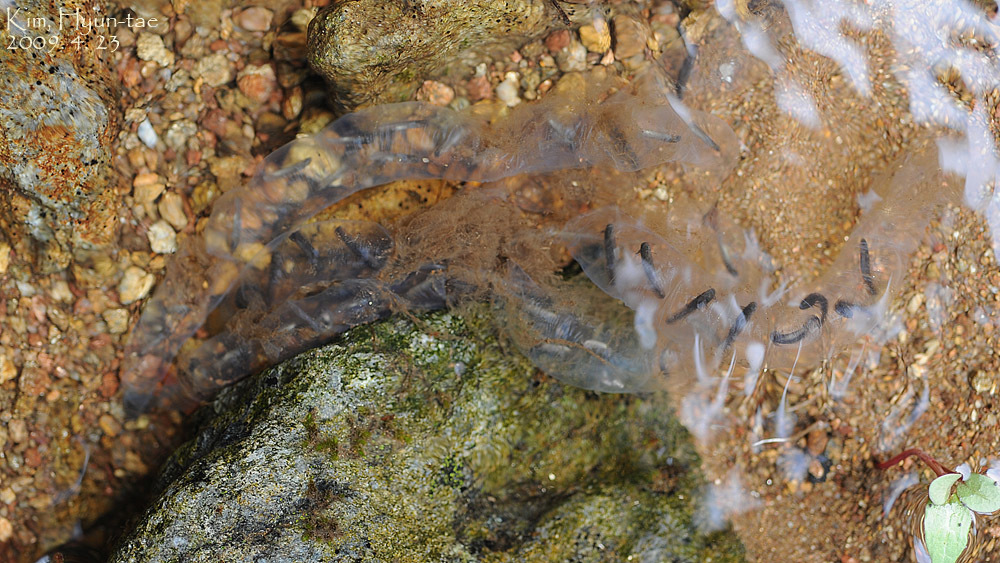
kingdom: Animalia
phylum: Chordata
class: Amphibia
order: Caudata
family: Hynobiidae
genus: Hynobius
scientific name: Hynobius leechii
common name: Gensan salamander
